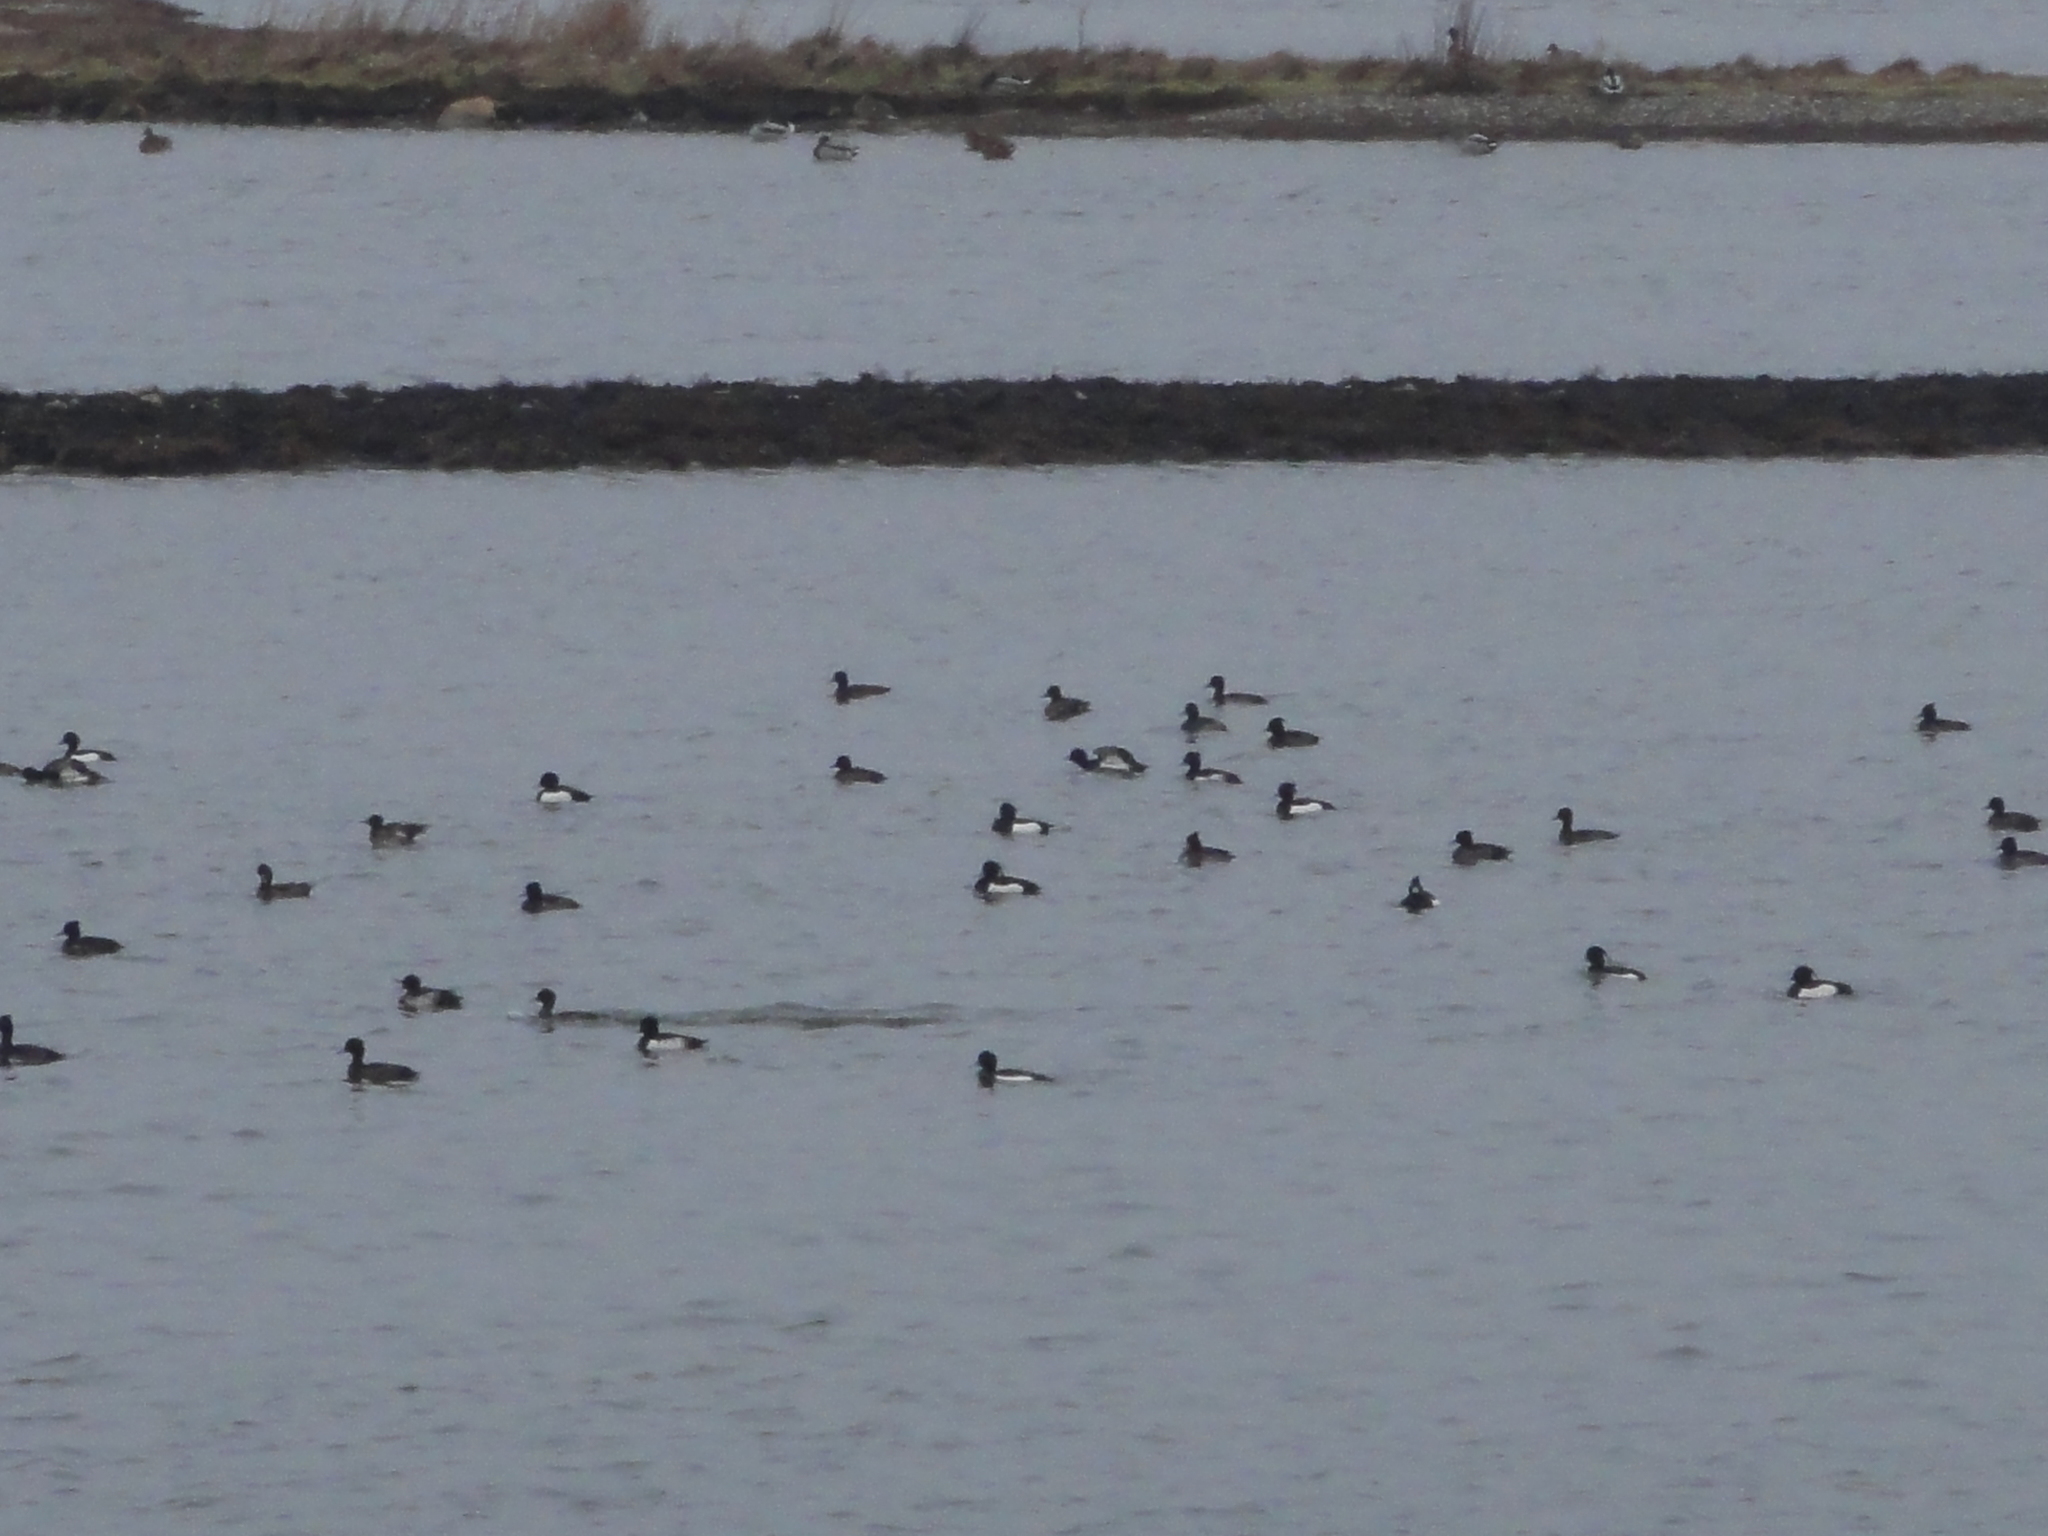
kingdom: Animalia
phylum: Chordata
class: Aves
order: Anseriformes
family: Anatidae
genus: Aythya
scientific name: Aythya fuligula
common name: Tufted duck
